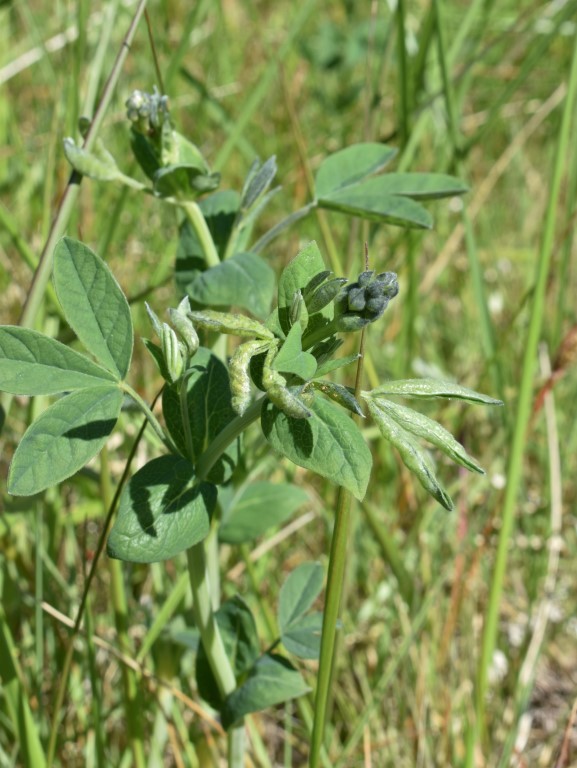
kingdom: Plantae
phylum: Tracheophyta
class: Magnoliopsida
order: Fabales
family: Fabaceae
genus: Thermopsis
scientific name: Thermopsis gracilis
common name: Slender golden-banner
